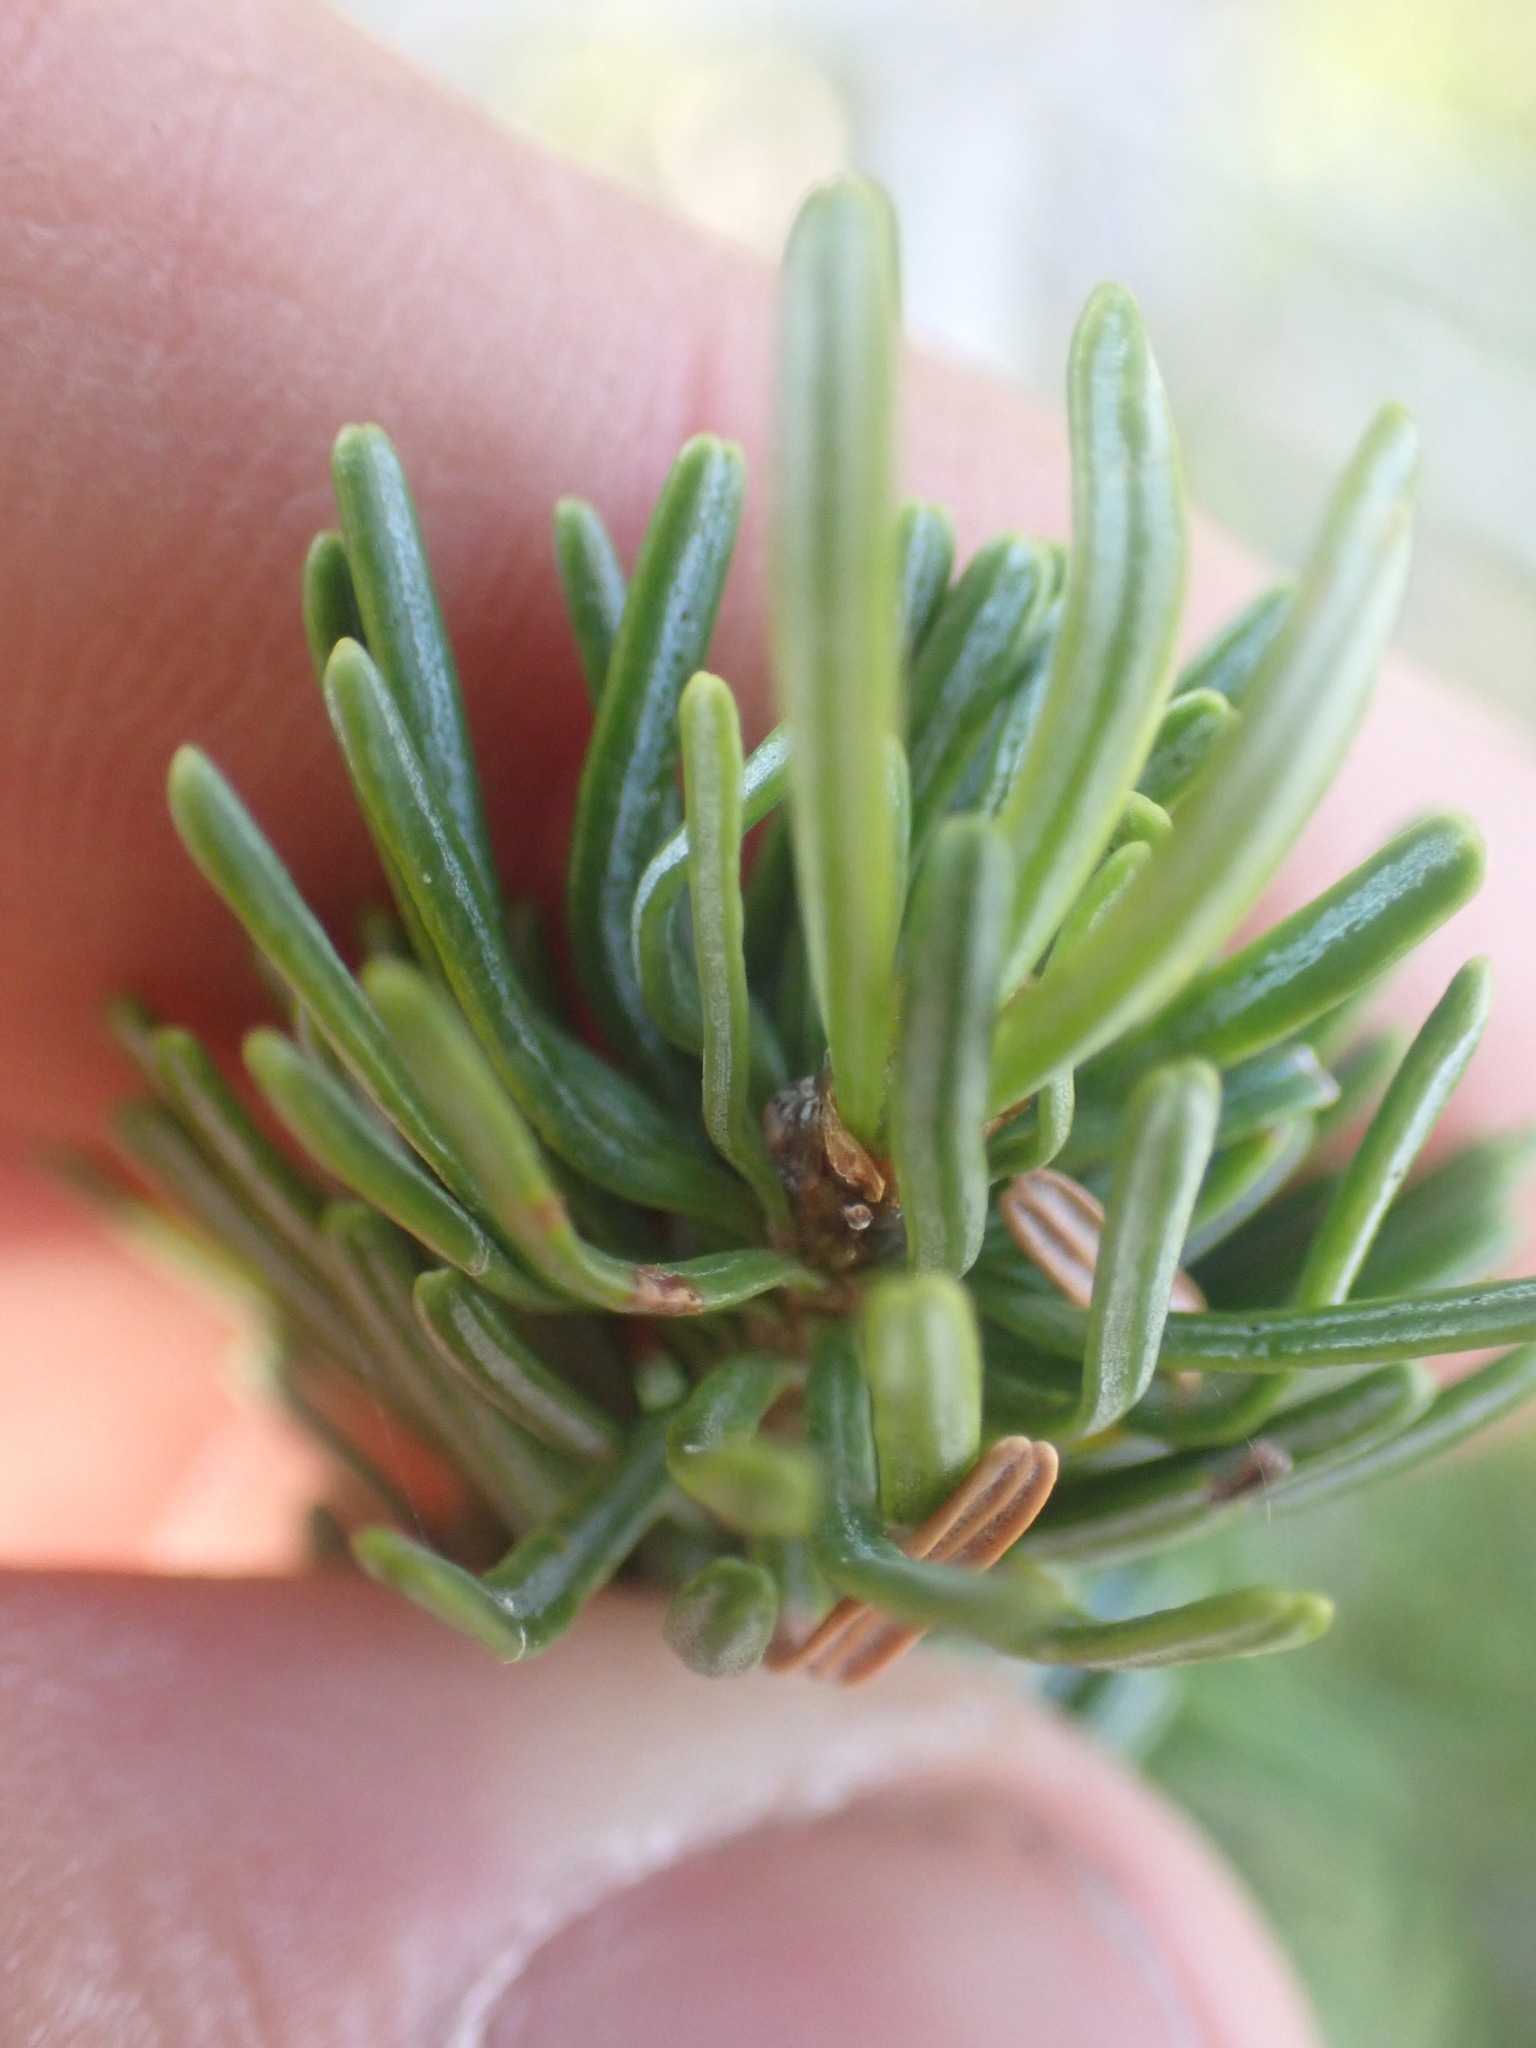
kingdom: Plantae
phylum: Tracheophyta
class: Pinopsida
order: Pinales
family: Pinaceae
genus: Abies
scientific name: Abies lasiocarpa
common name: Subalpine fir
